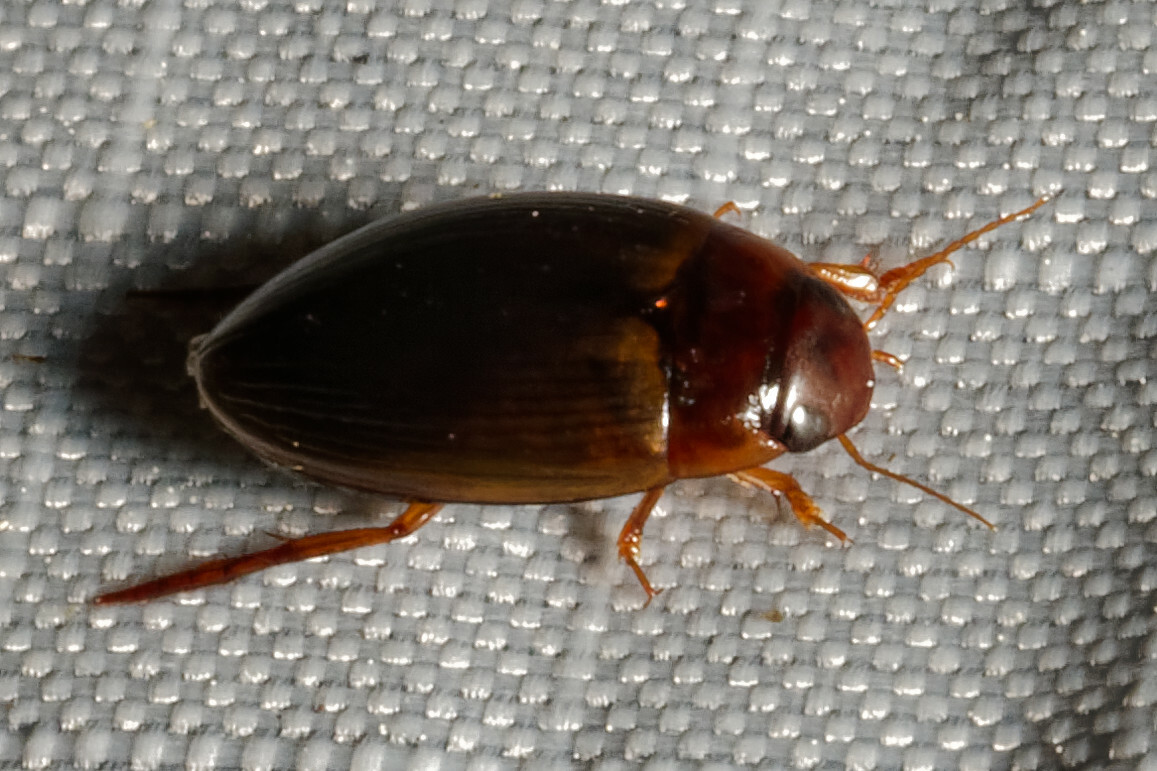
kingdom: Animalia
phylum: Arthropoda
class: Insecta
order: Coleoptera
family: Dytiscidae
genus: Copelatus
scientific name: Copelatus chevrolati
